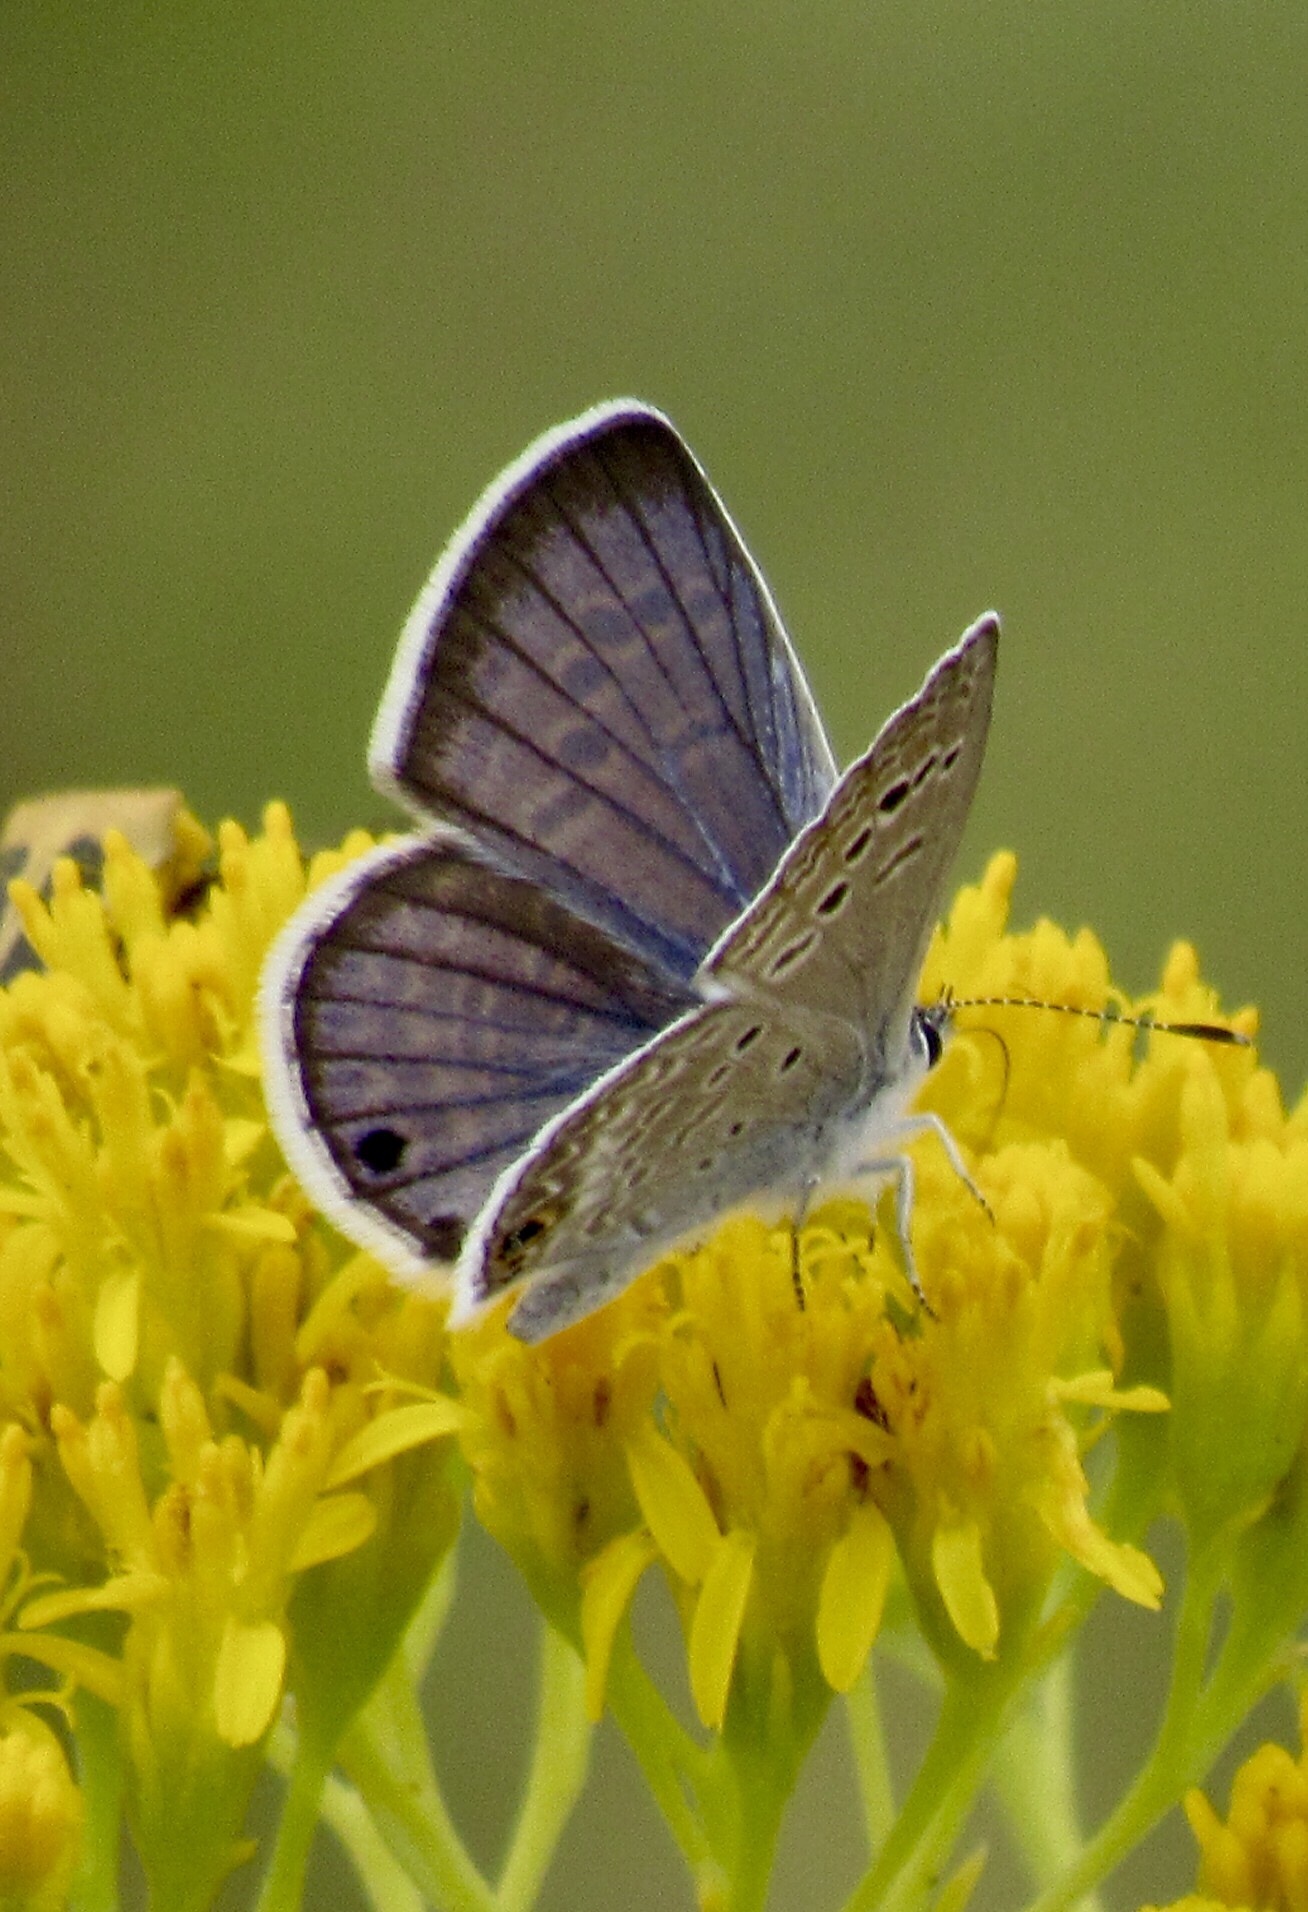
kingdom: Animalia
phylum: Arthropoda
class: Insecta
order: Lepidoptera
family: Lycaenidae
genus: Echinargus
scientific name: Echinargus isola
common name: Reakirt's blue
